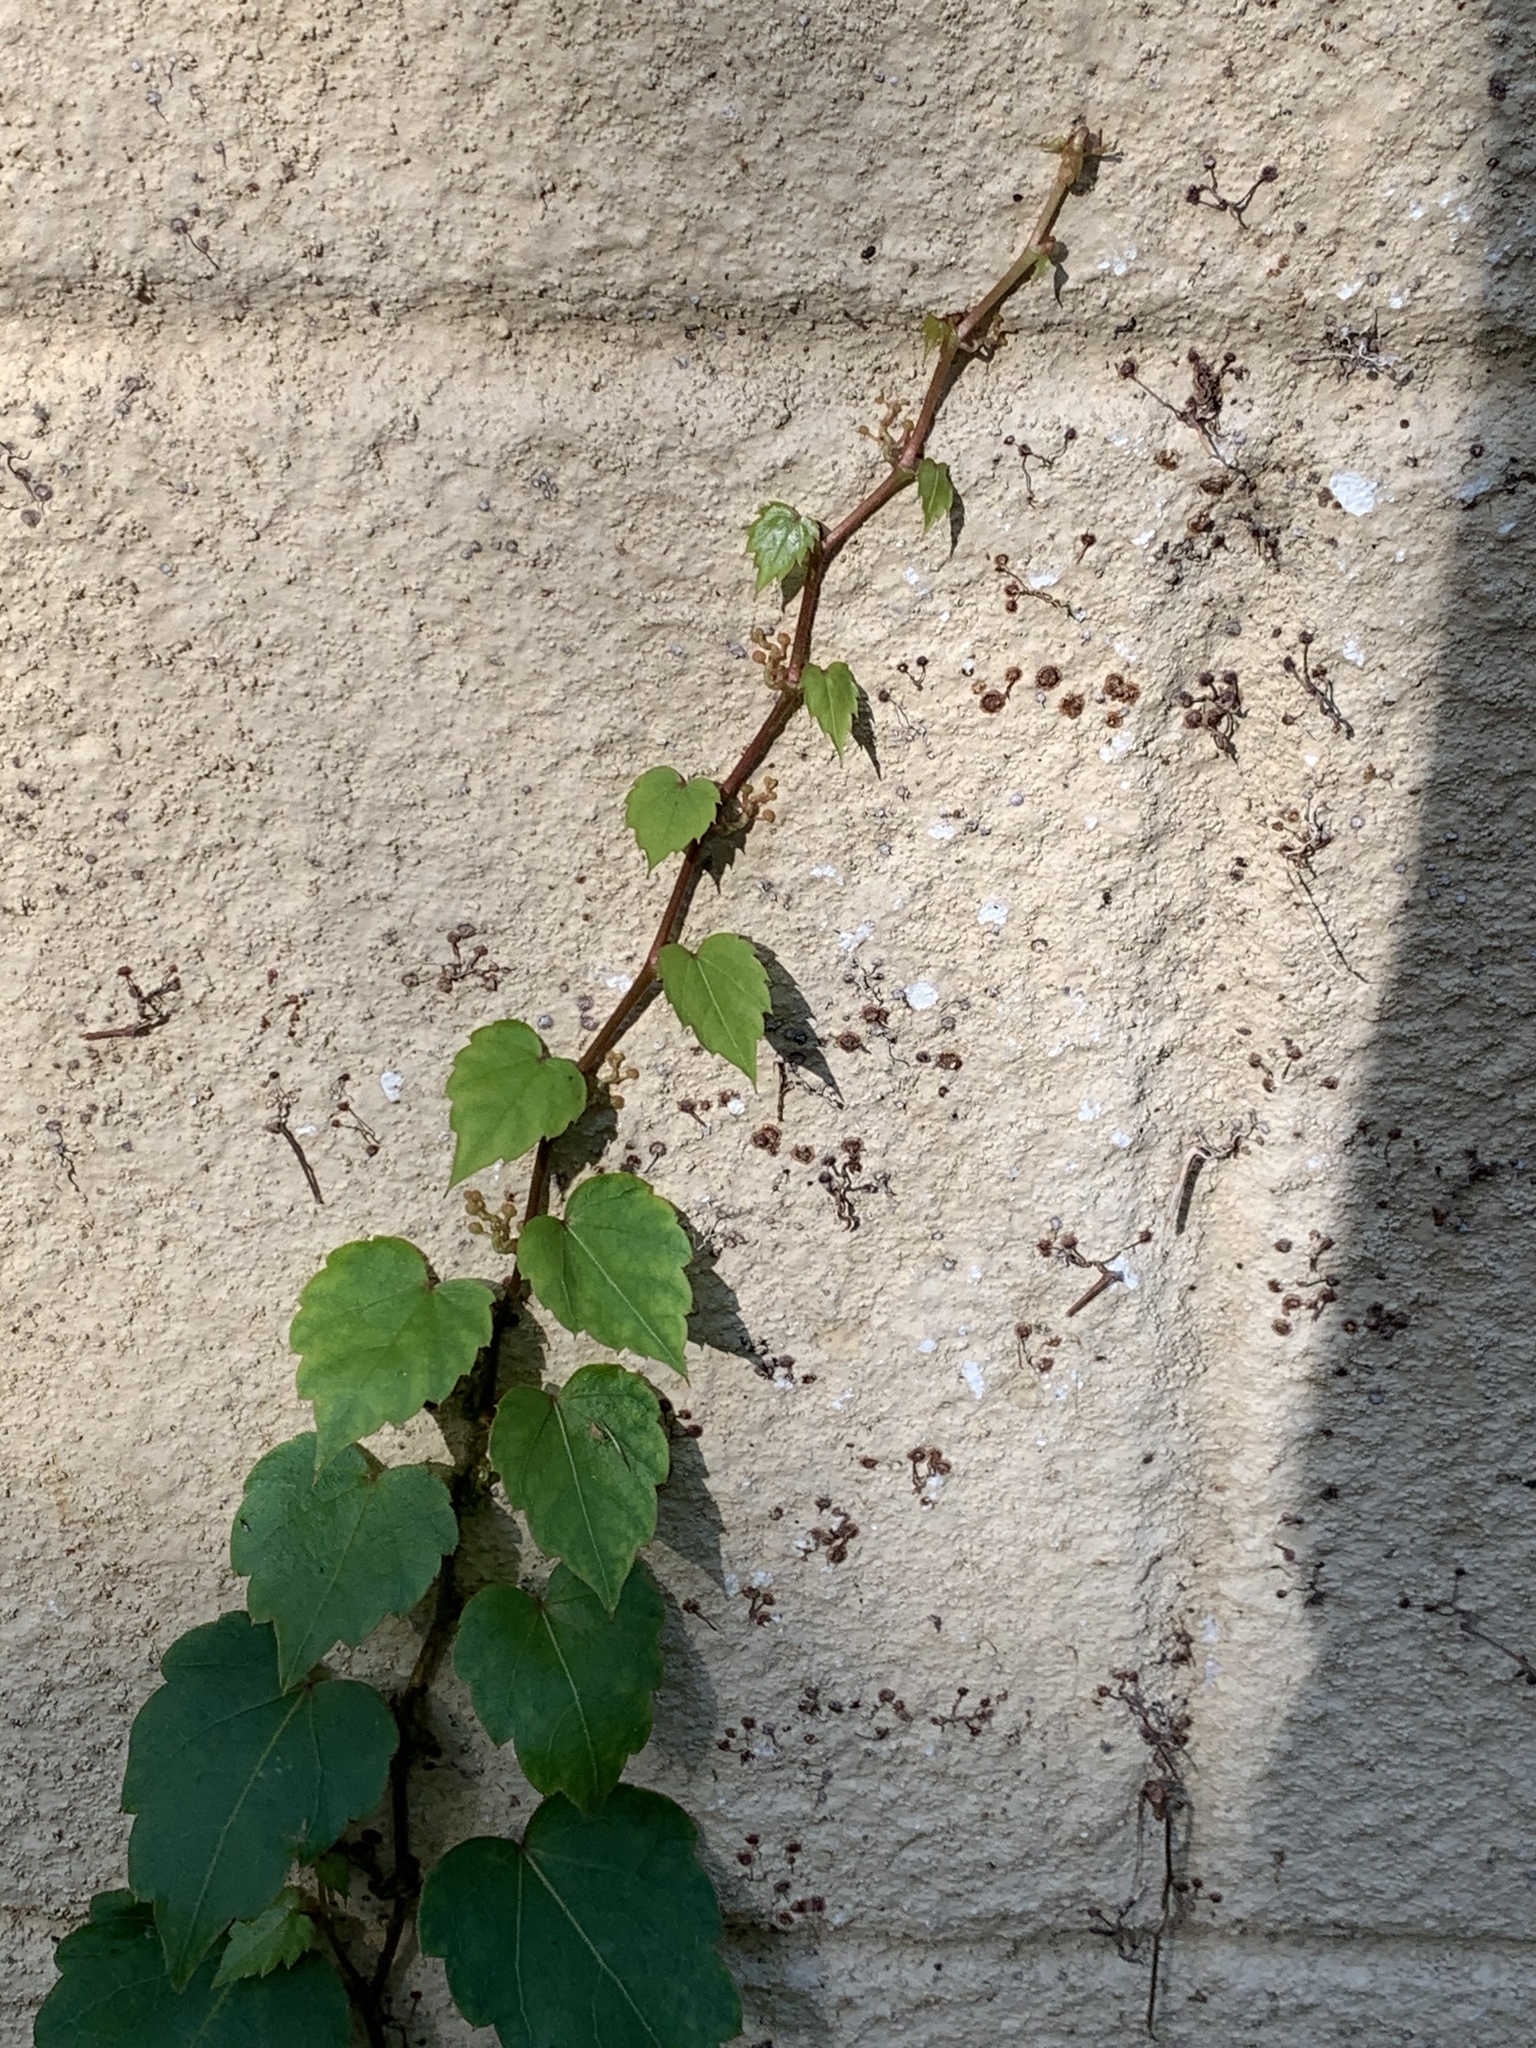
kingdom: Plantae
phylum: Tracheophyta
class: Magnoliopsida
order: Vitales
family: Vitaceae
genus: Parthenocissus
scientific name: Parthenocissus tricuspidata
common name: Boston ivy
